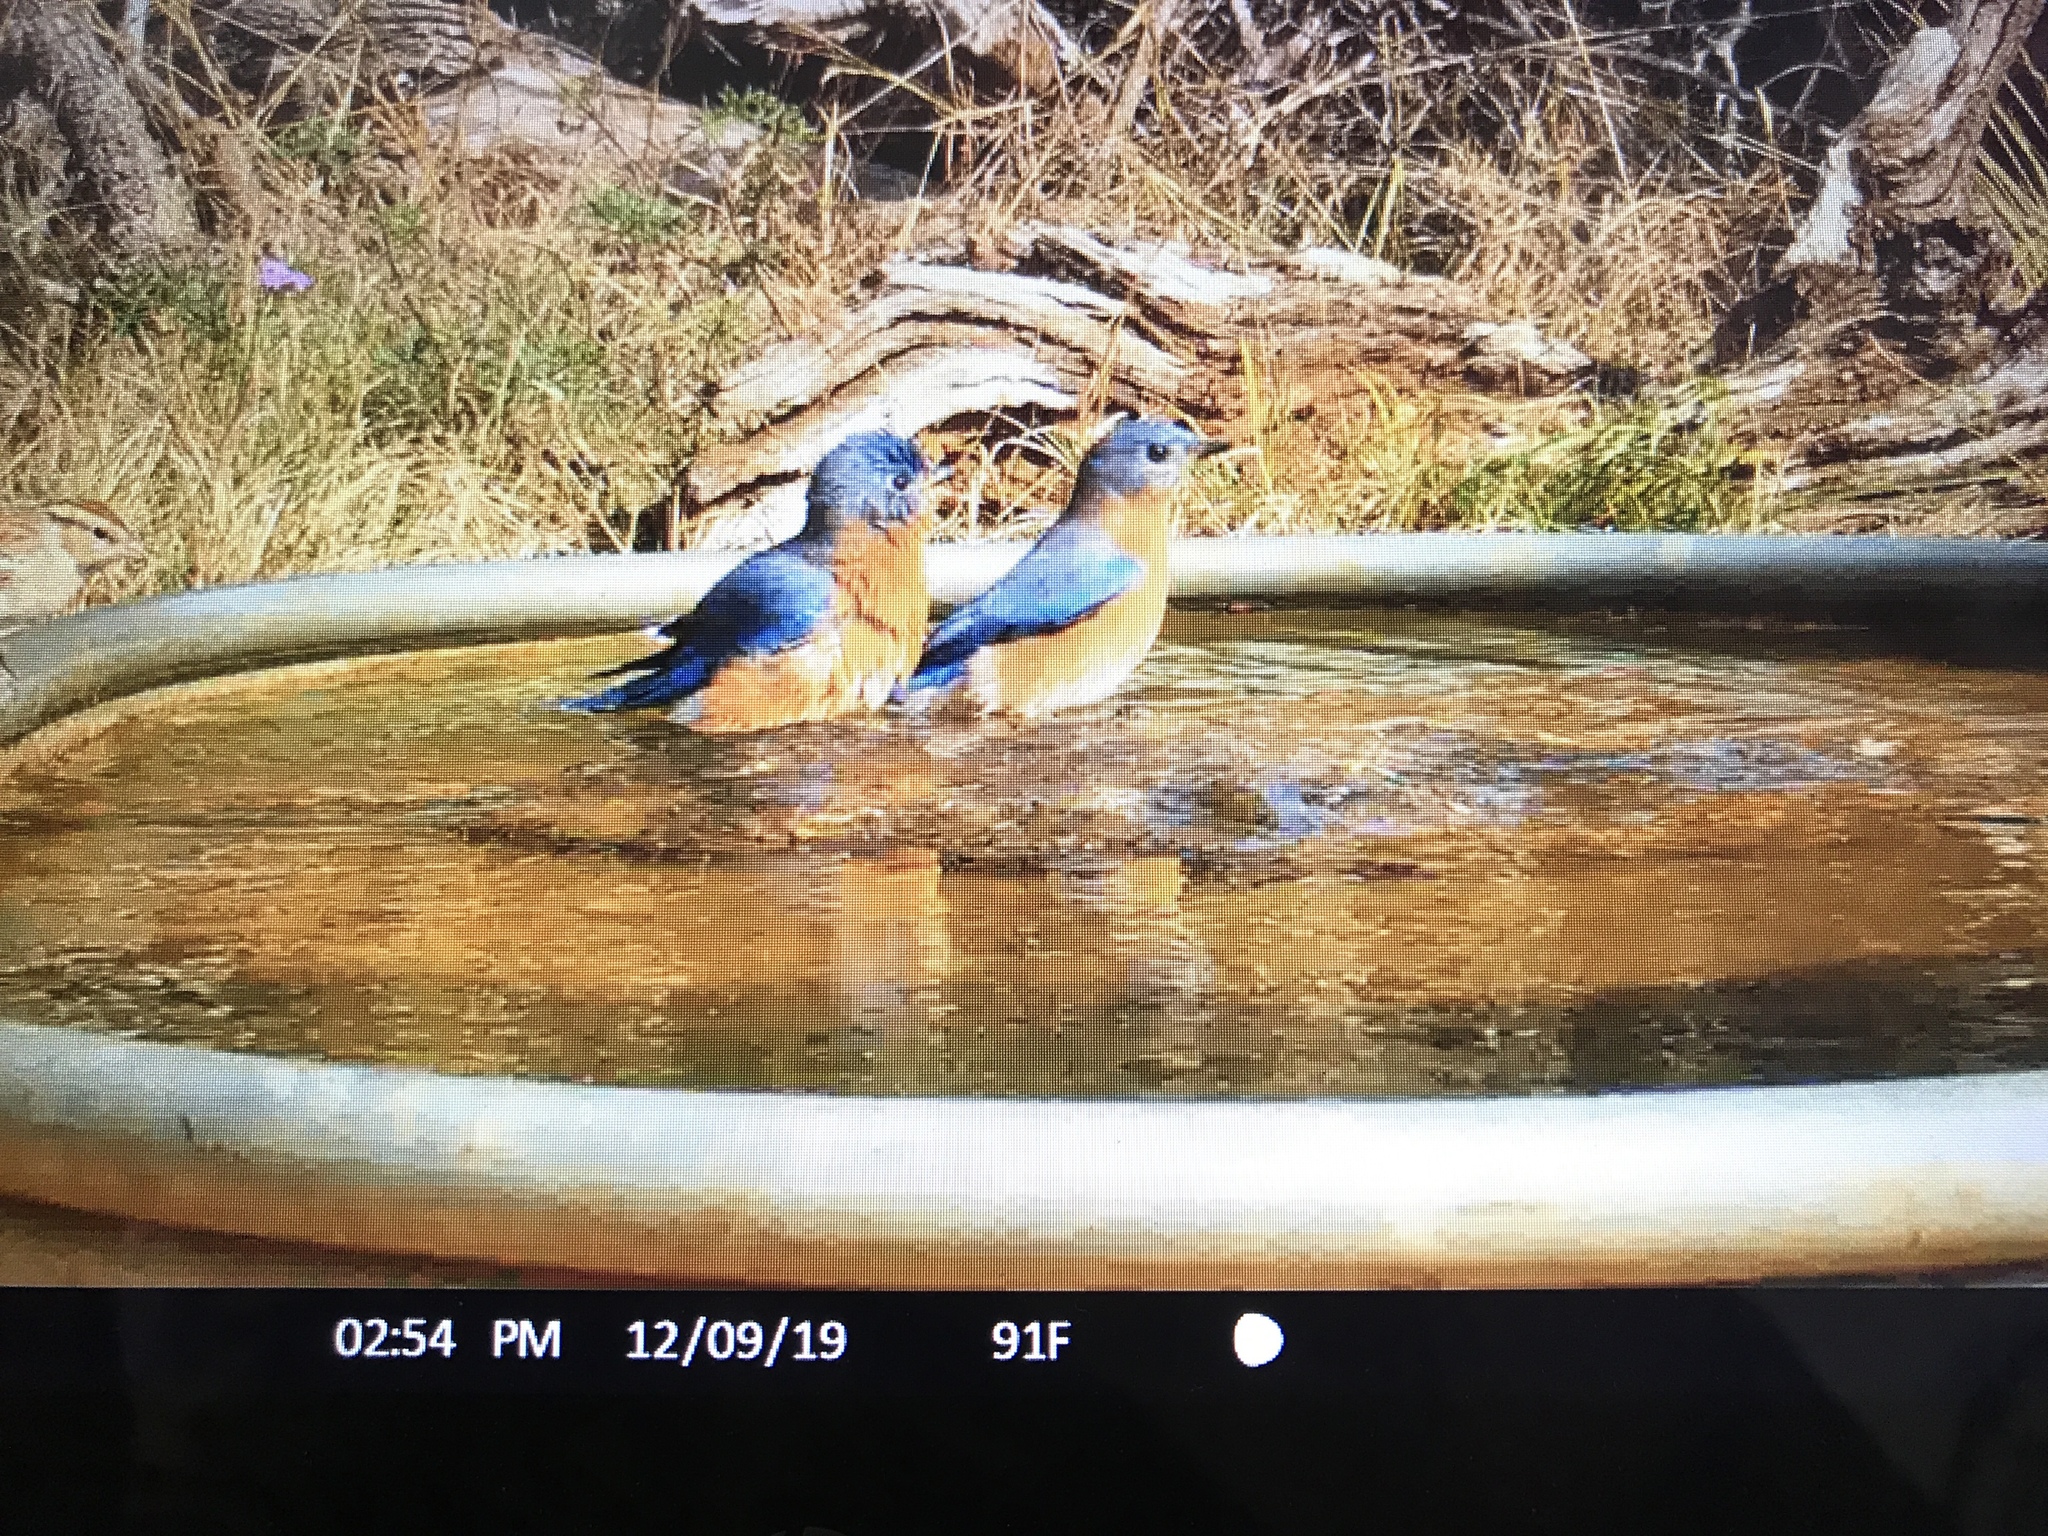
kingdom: Animalia
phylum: Chordata
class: Aves
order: Passeriformes
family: Turdidae
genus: Sialia
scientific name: Sialia sialis
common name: Eastern bluebird
